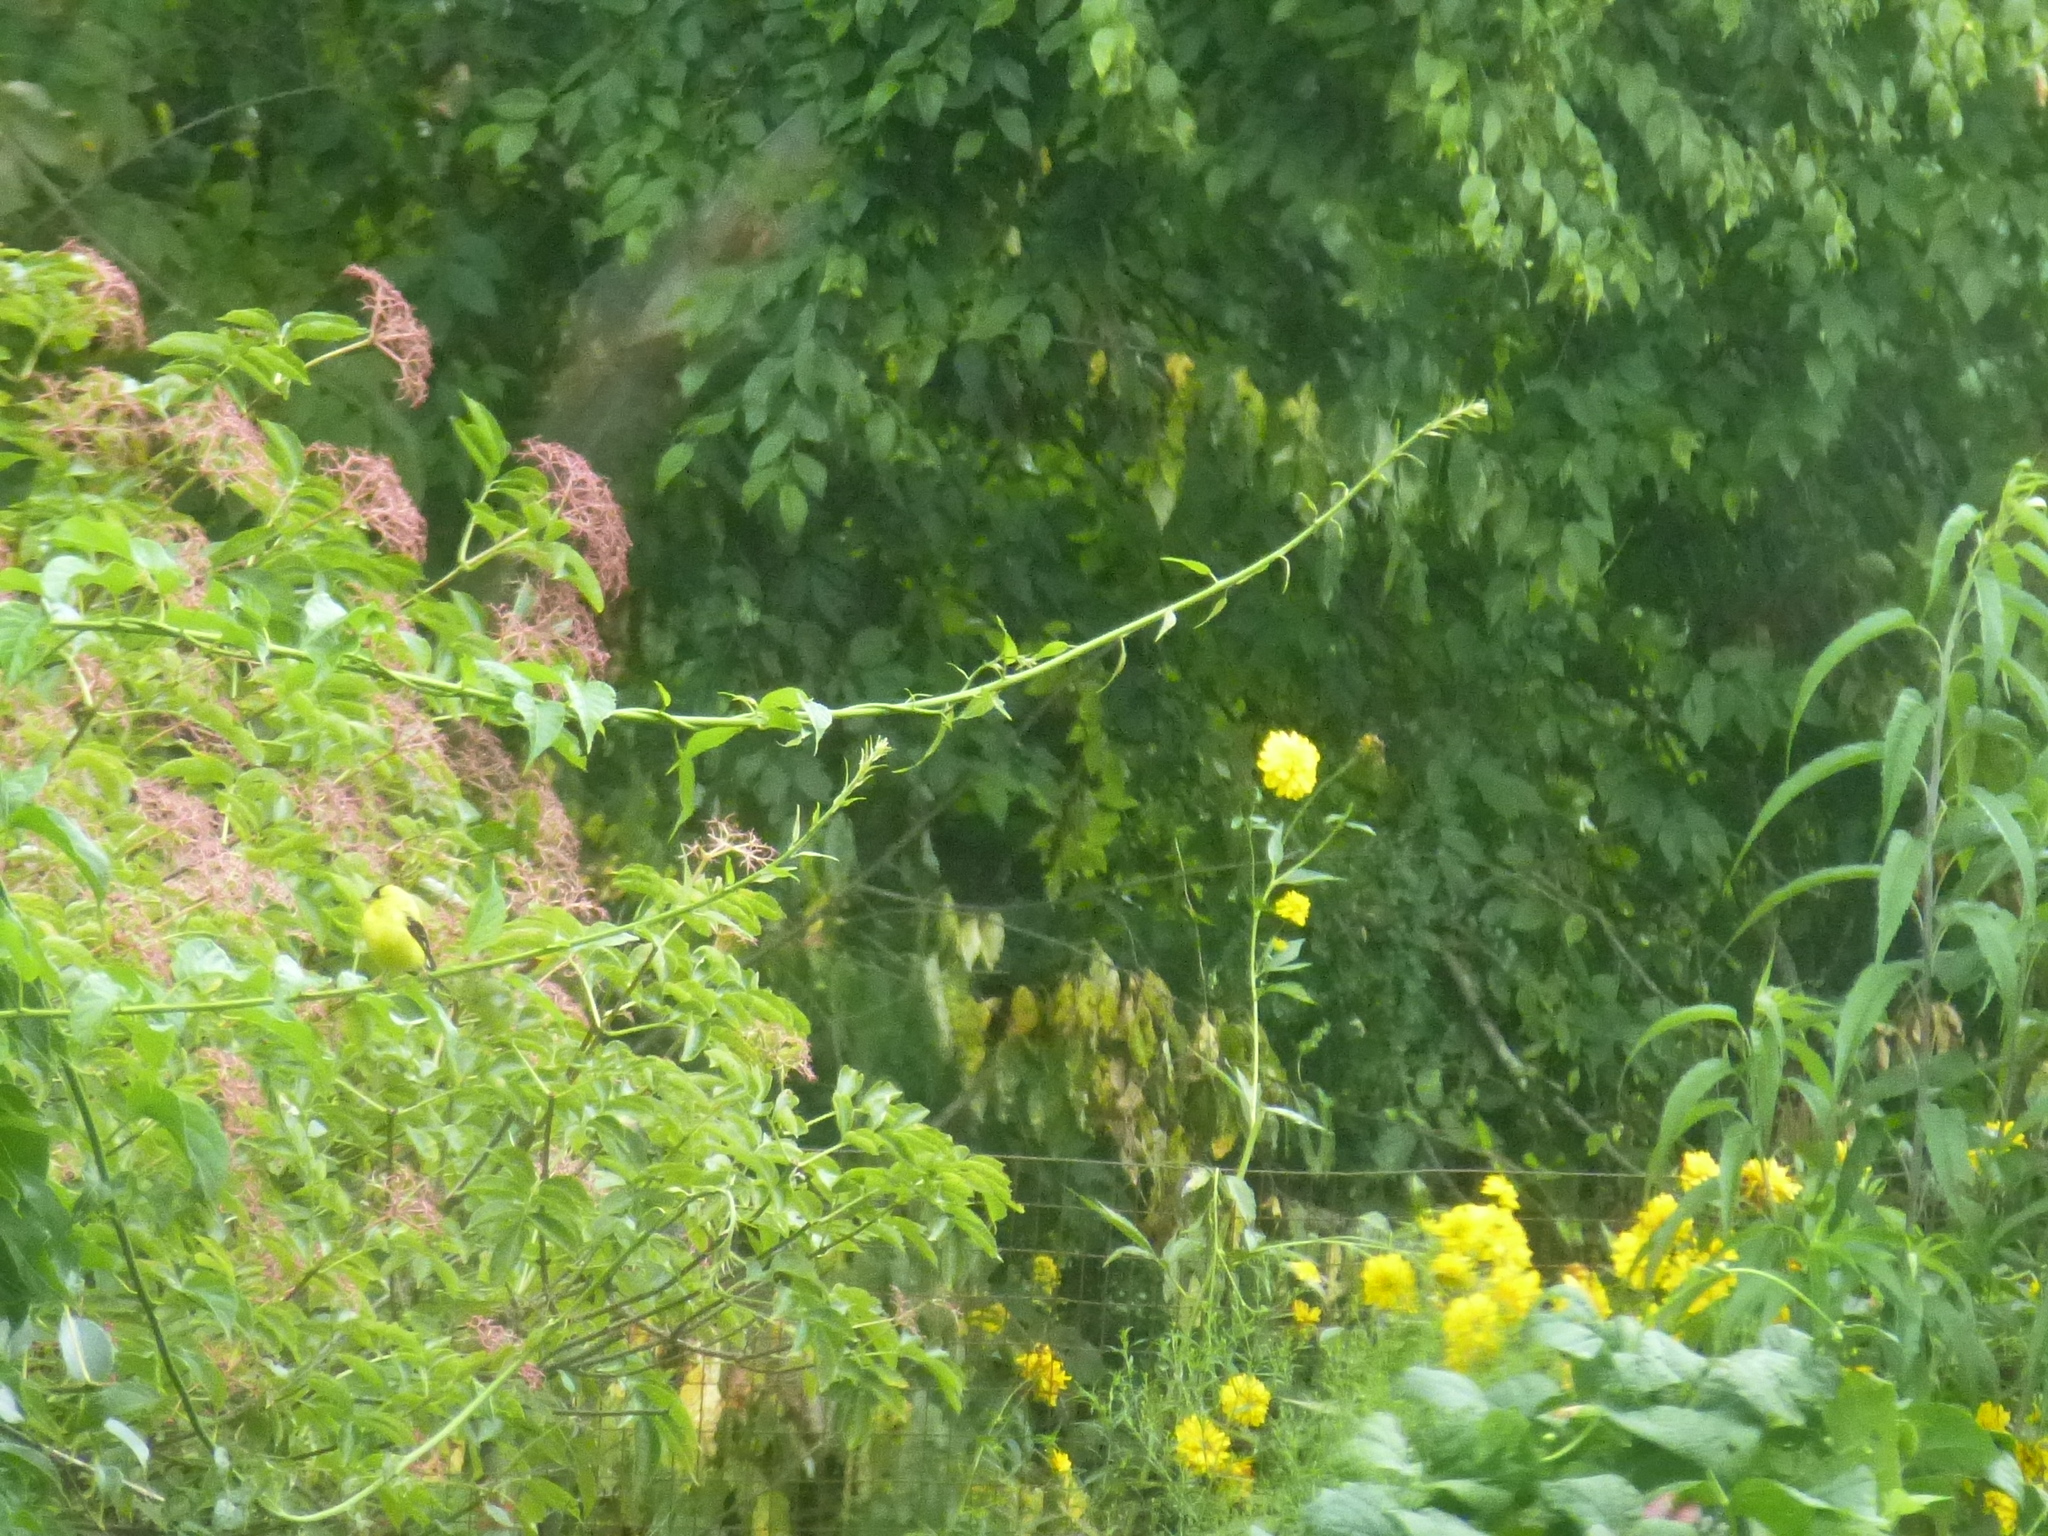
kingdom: Animalia
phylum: Chordata
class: Aves
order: Passeriformes
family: Fringillidae
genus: Spinus
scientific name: Spinus tristis
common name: American goldfinch
